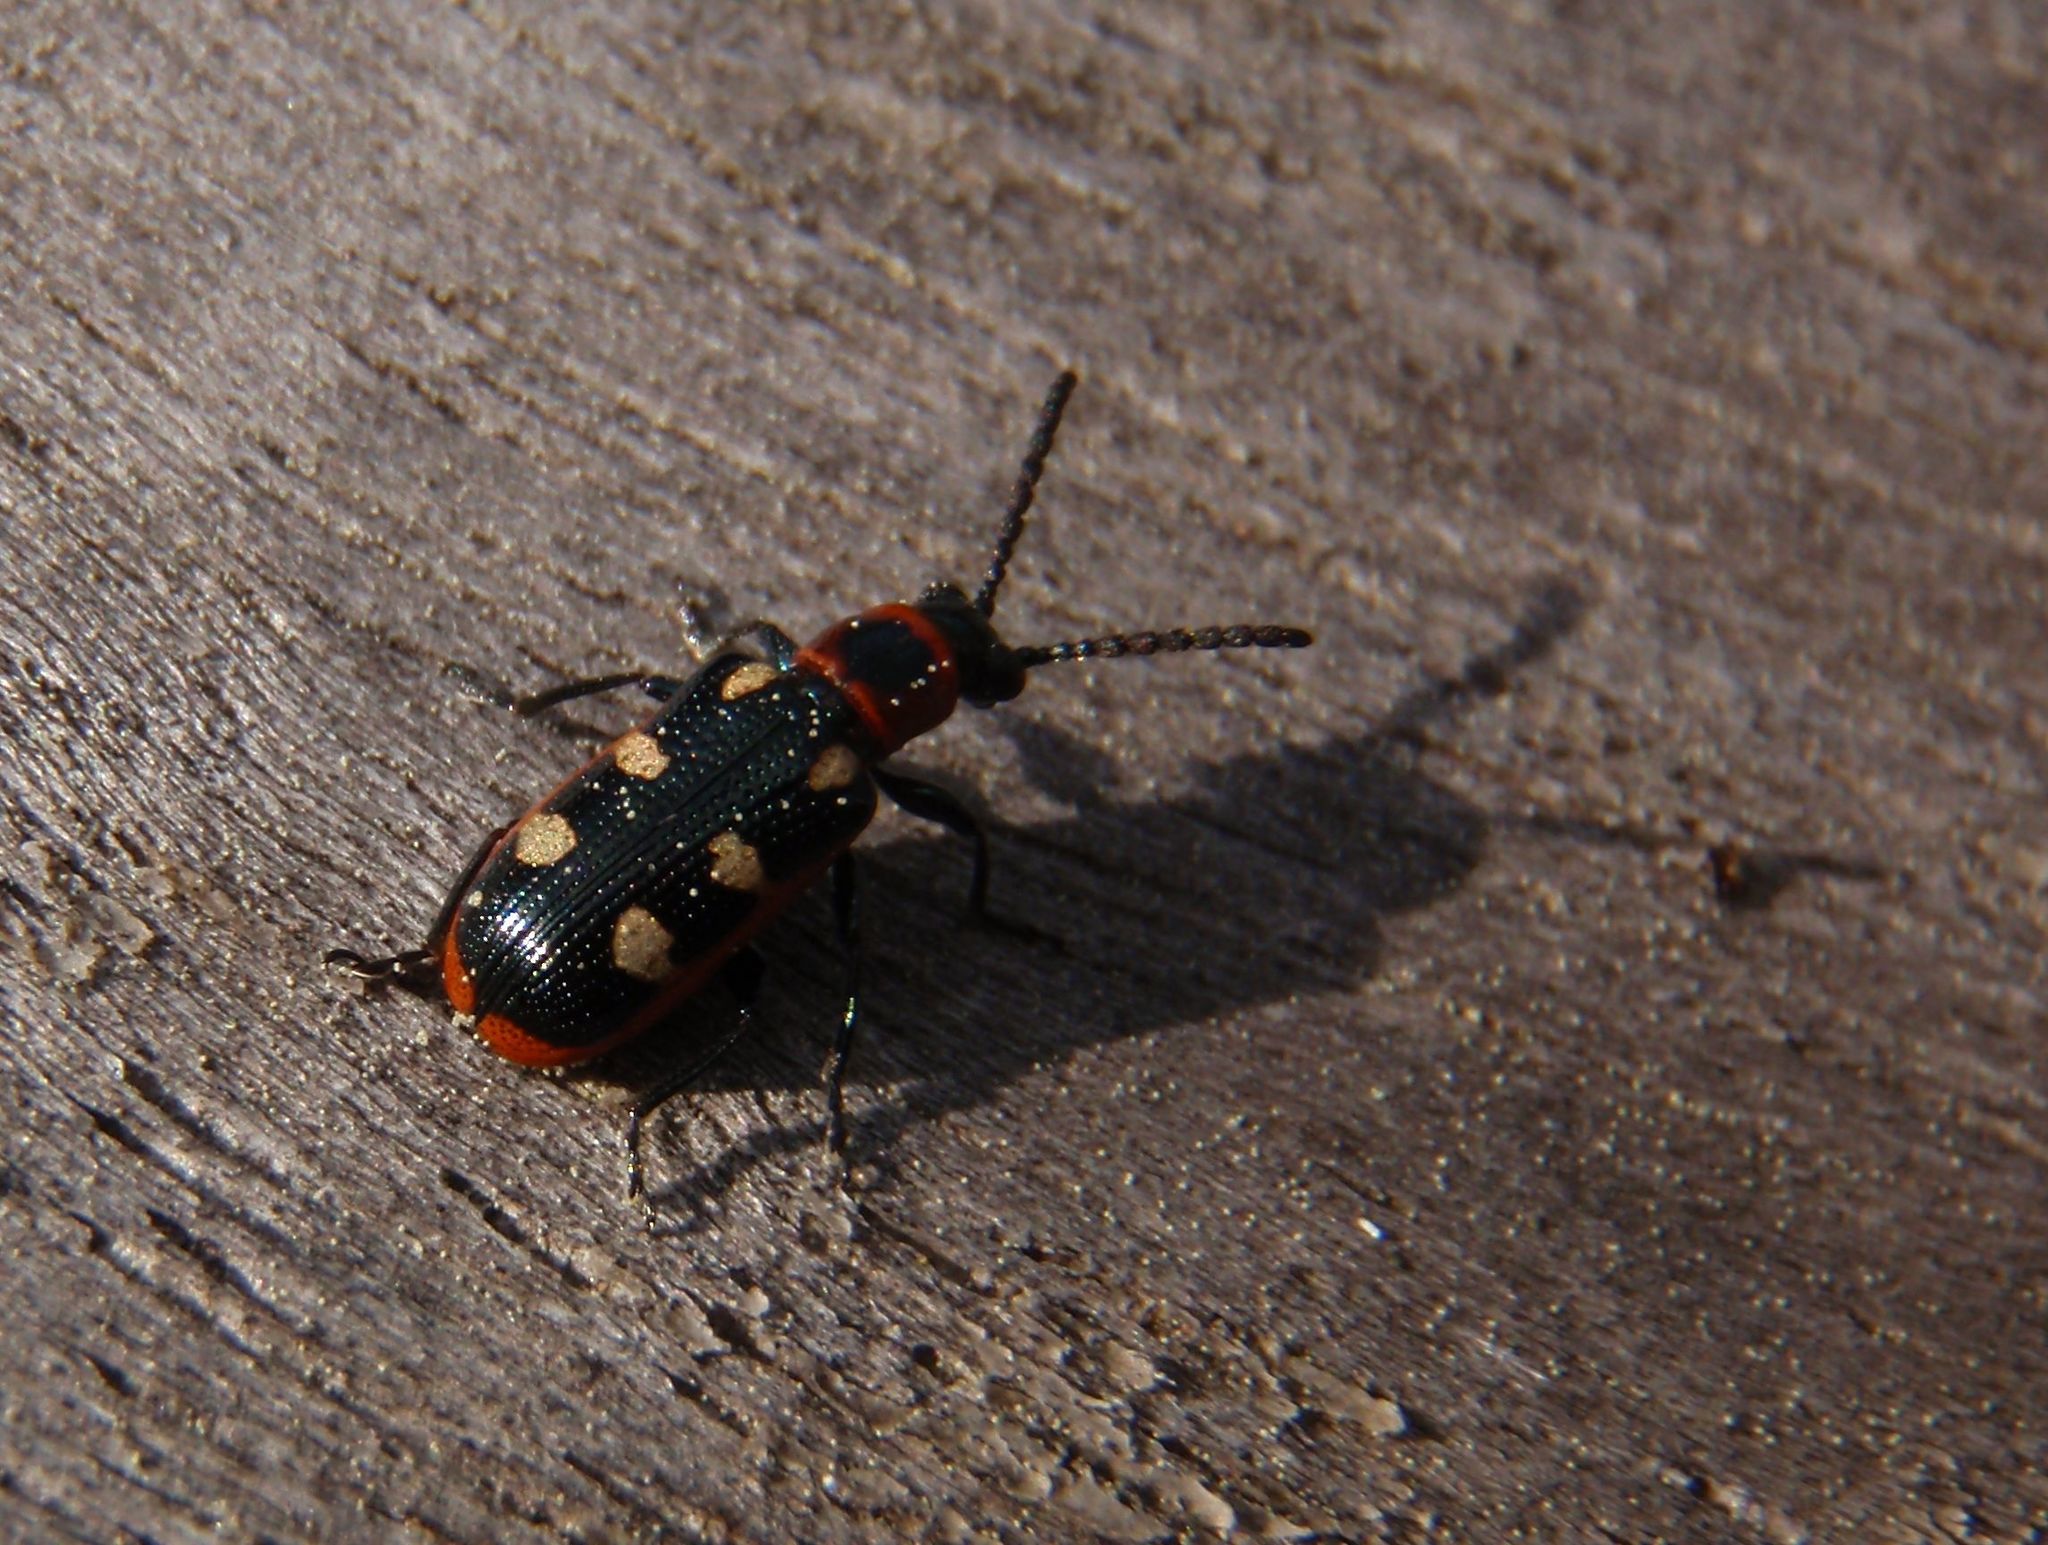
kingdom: Animalia
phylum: Arthropoda
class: Insecta
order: Coleoptera
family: Chrysomelidae
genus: Crioceris
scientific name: Crioceris asparagi
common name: Asparagus beetle
